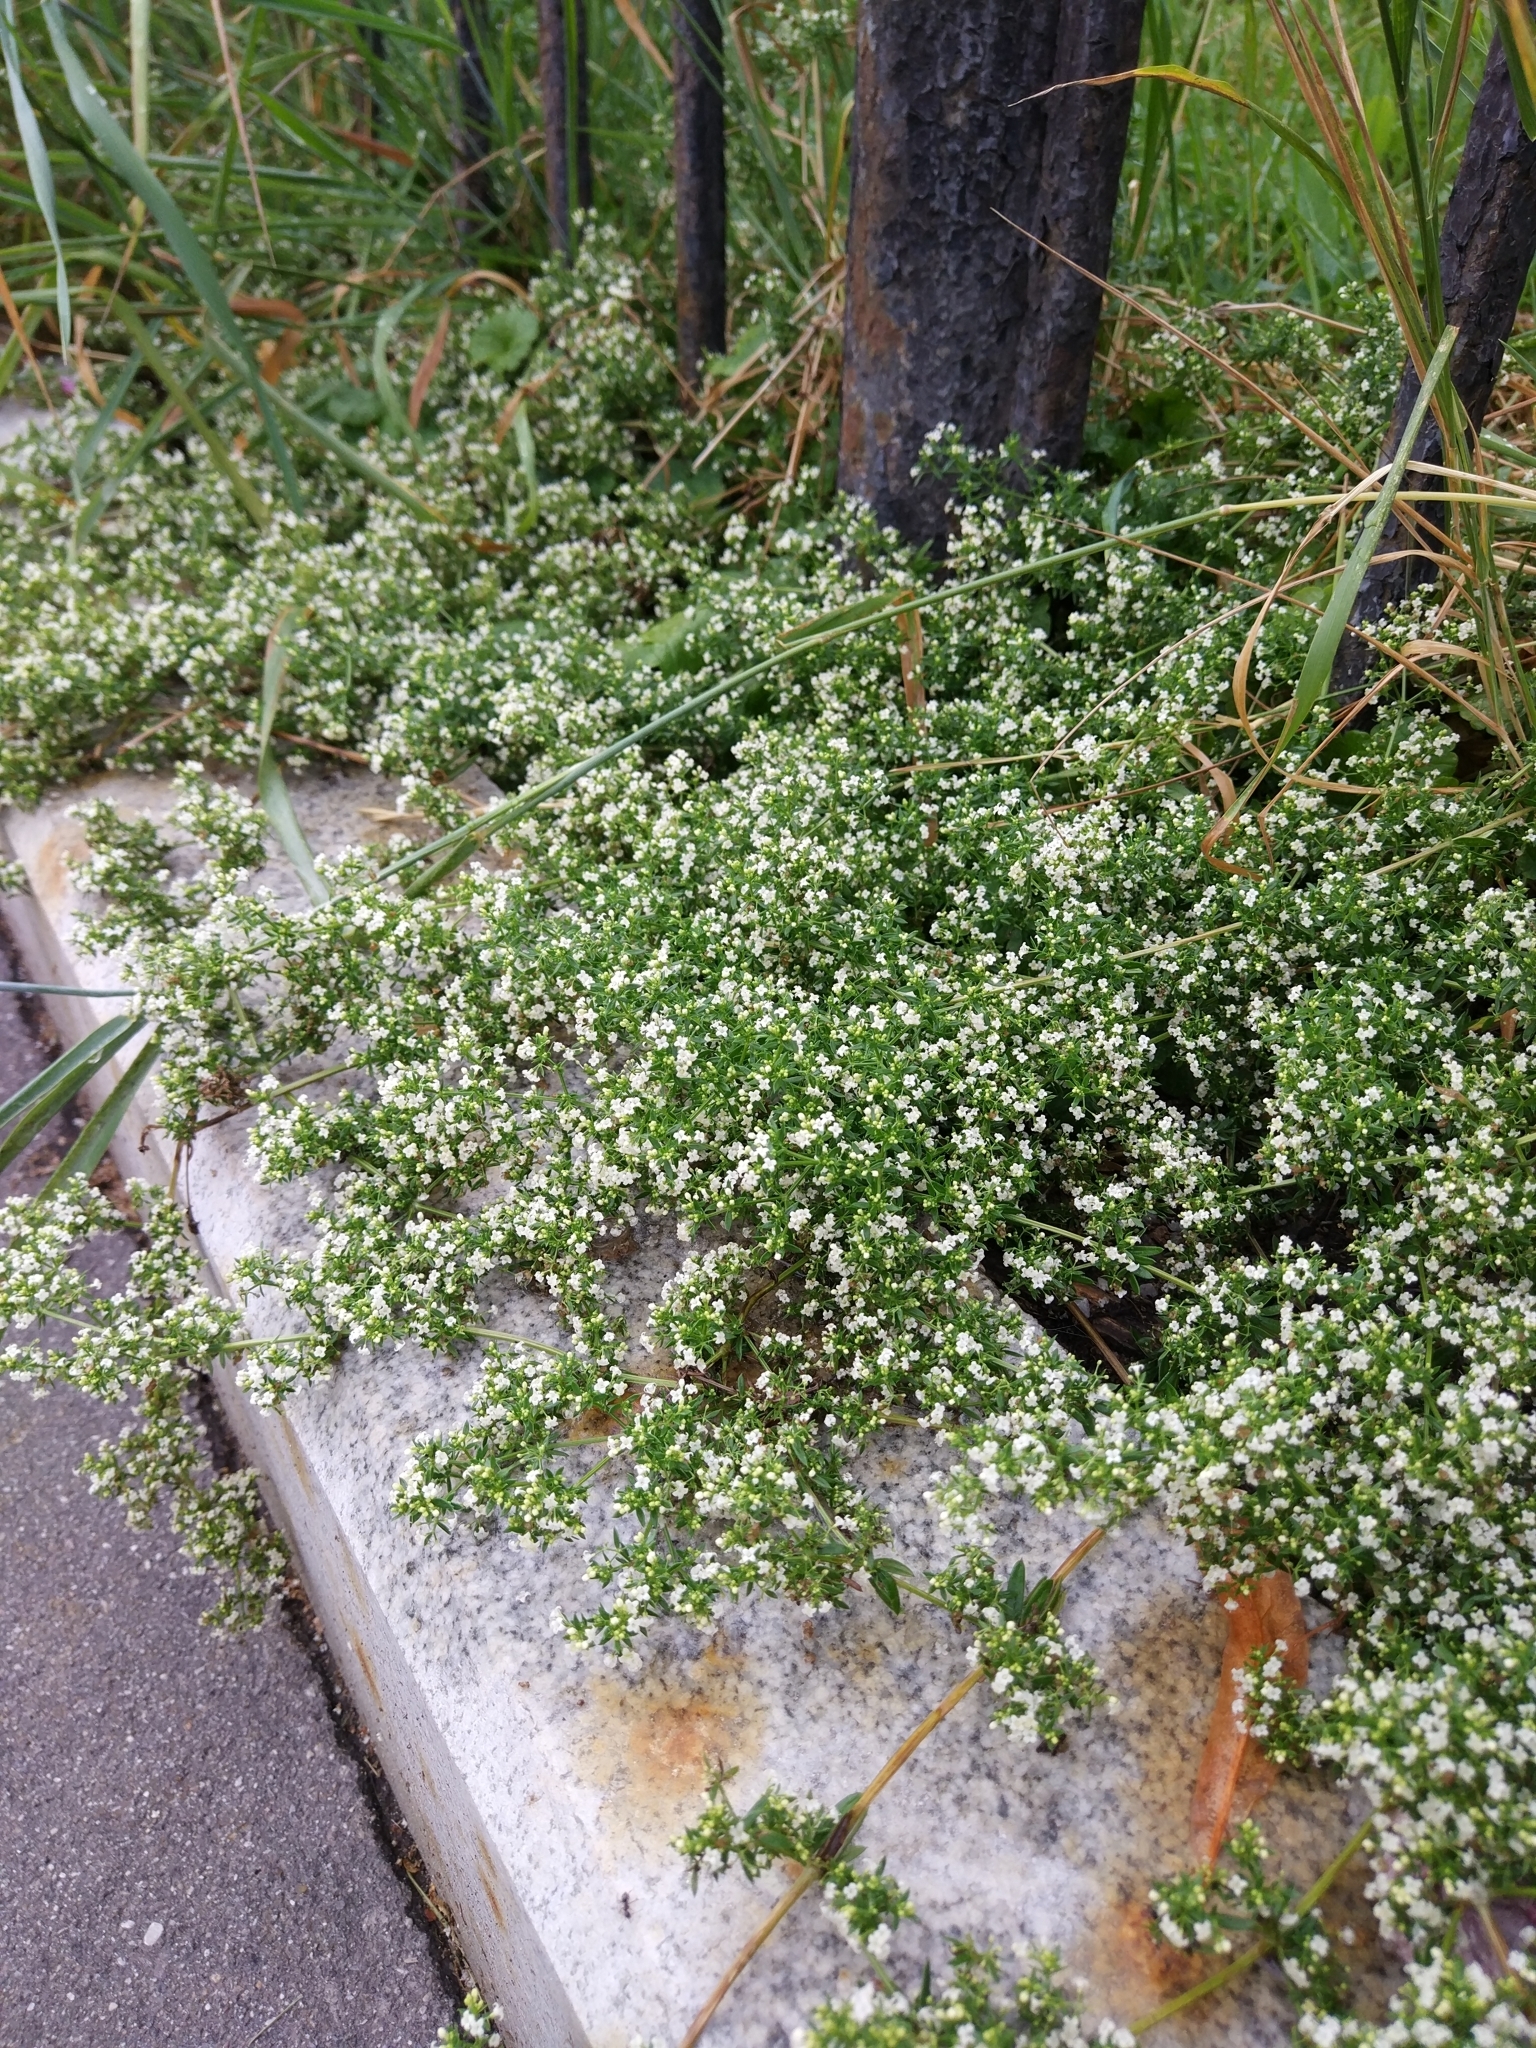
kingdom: Plantae
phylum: Tracheophyta
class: Magnoliopsida
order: Gentianales
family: Rubiaceae
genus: Galium
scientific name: Galium humifusum
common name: Spreading bedstraw
